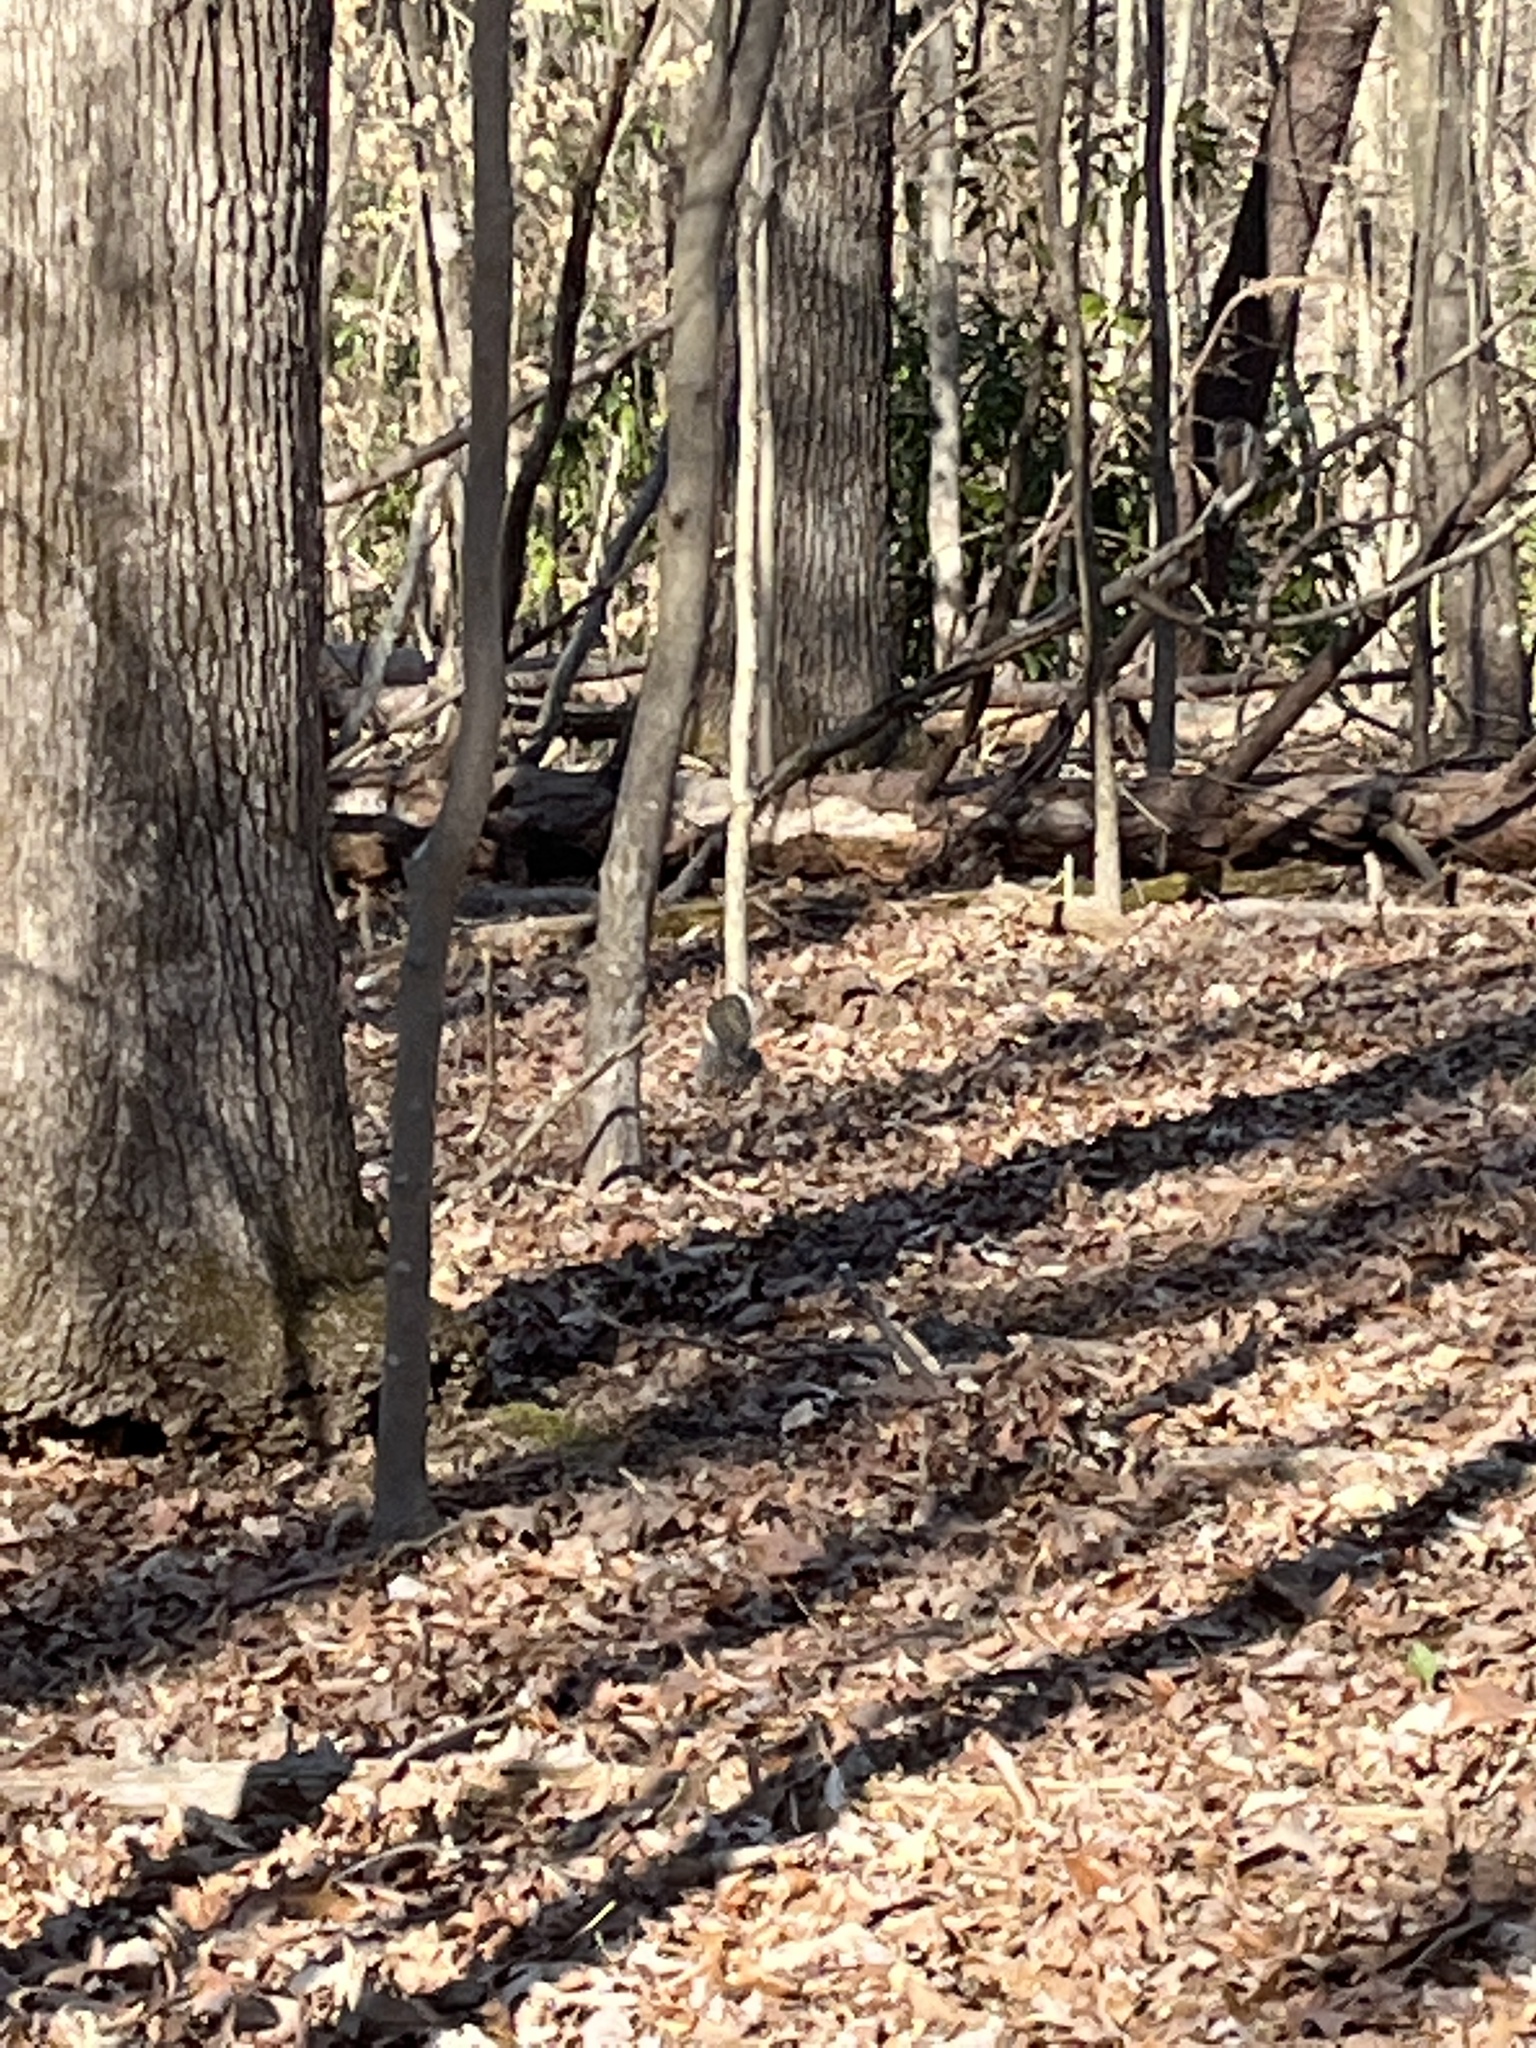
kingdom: Animalia
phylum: Chordata
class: Mammalia
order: Rodentia
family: Sciuridae
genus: Sciurus
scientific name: Sciurus carolinensis
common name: Eastern gray squirrel
